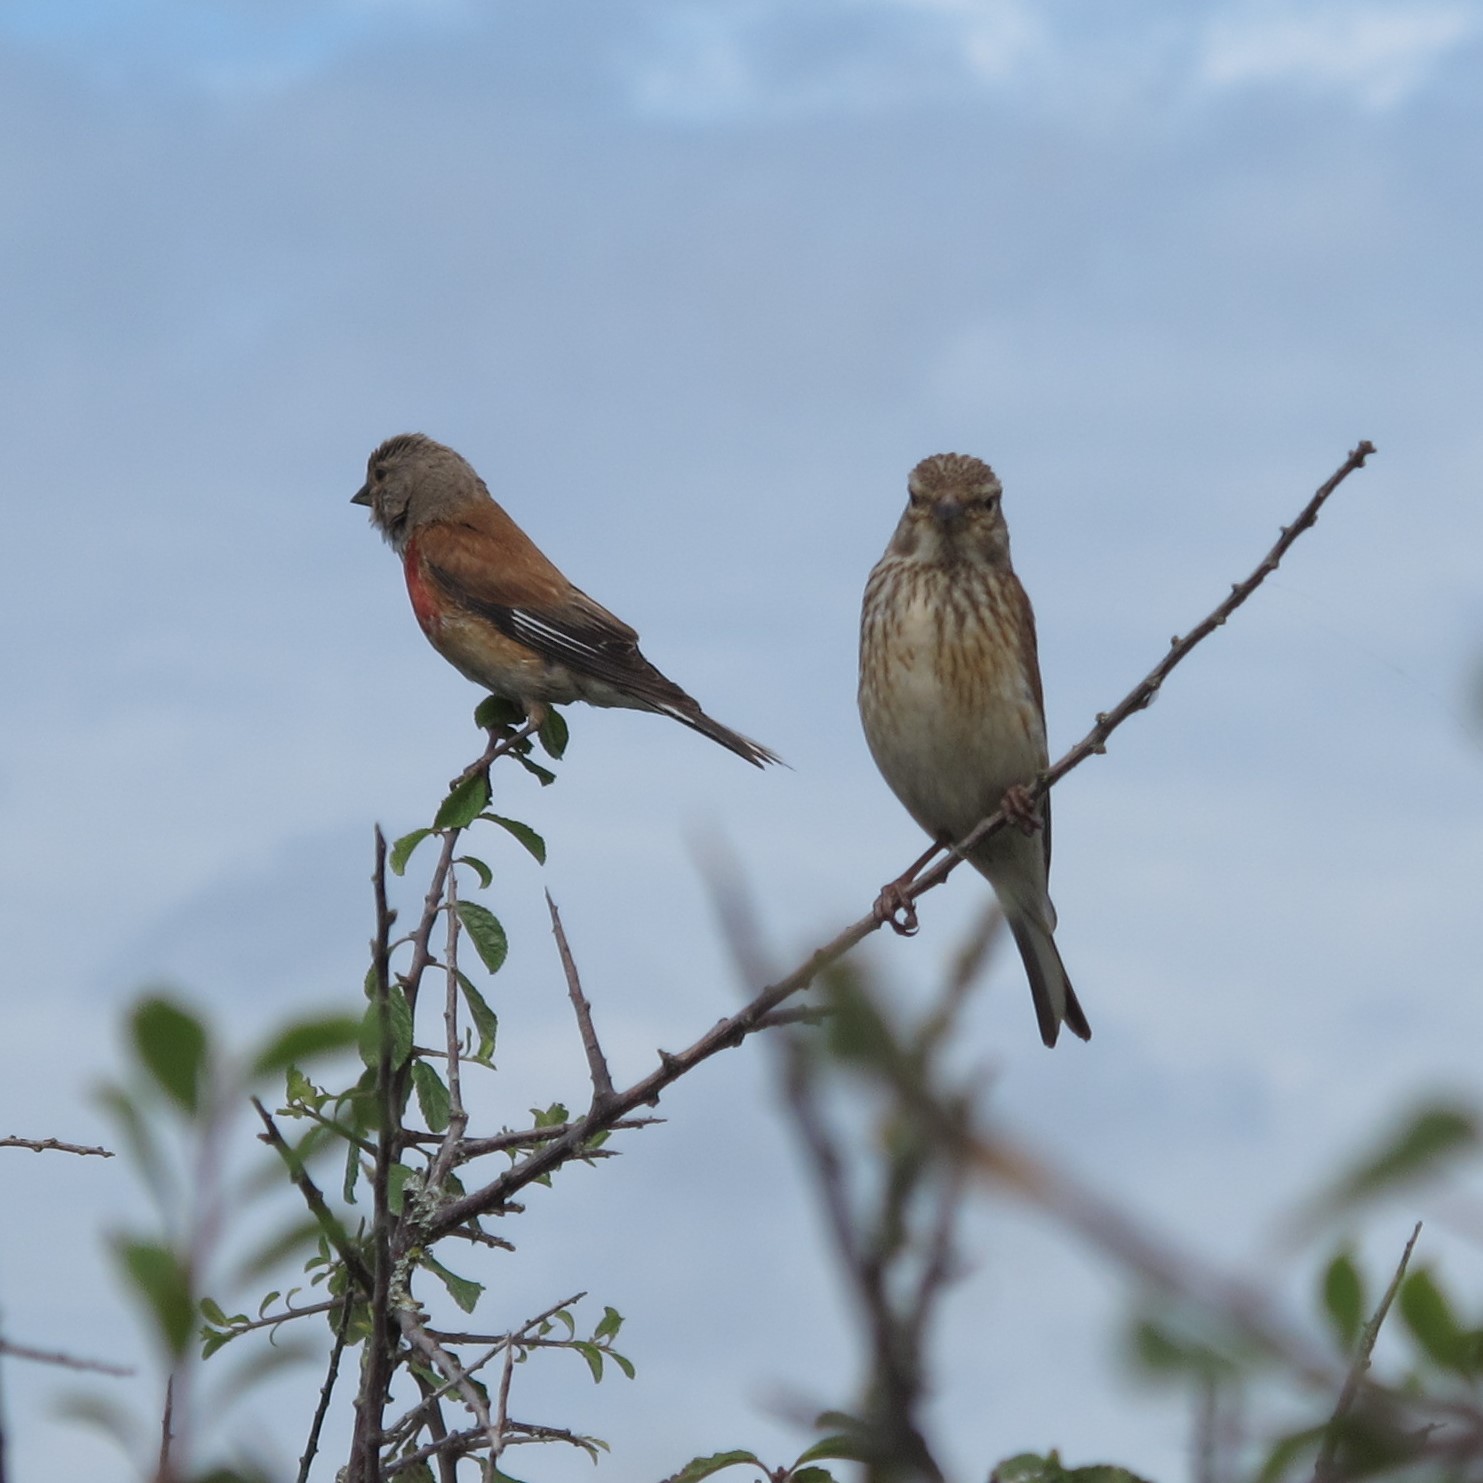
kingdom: Animalia
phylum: Chordata
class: Aves
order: Passeriformes
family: Fringillidae
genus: Linaria
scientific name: Linaria cannabina
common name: Common linnet
